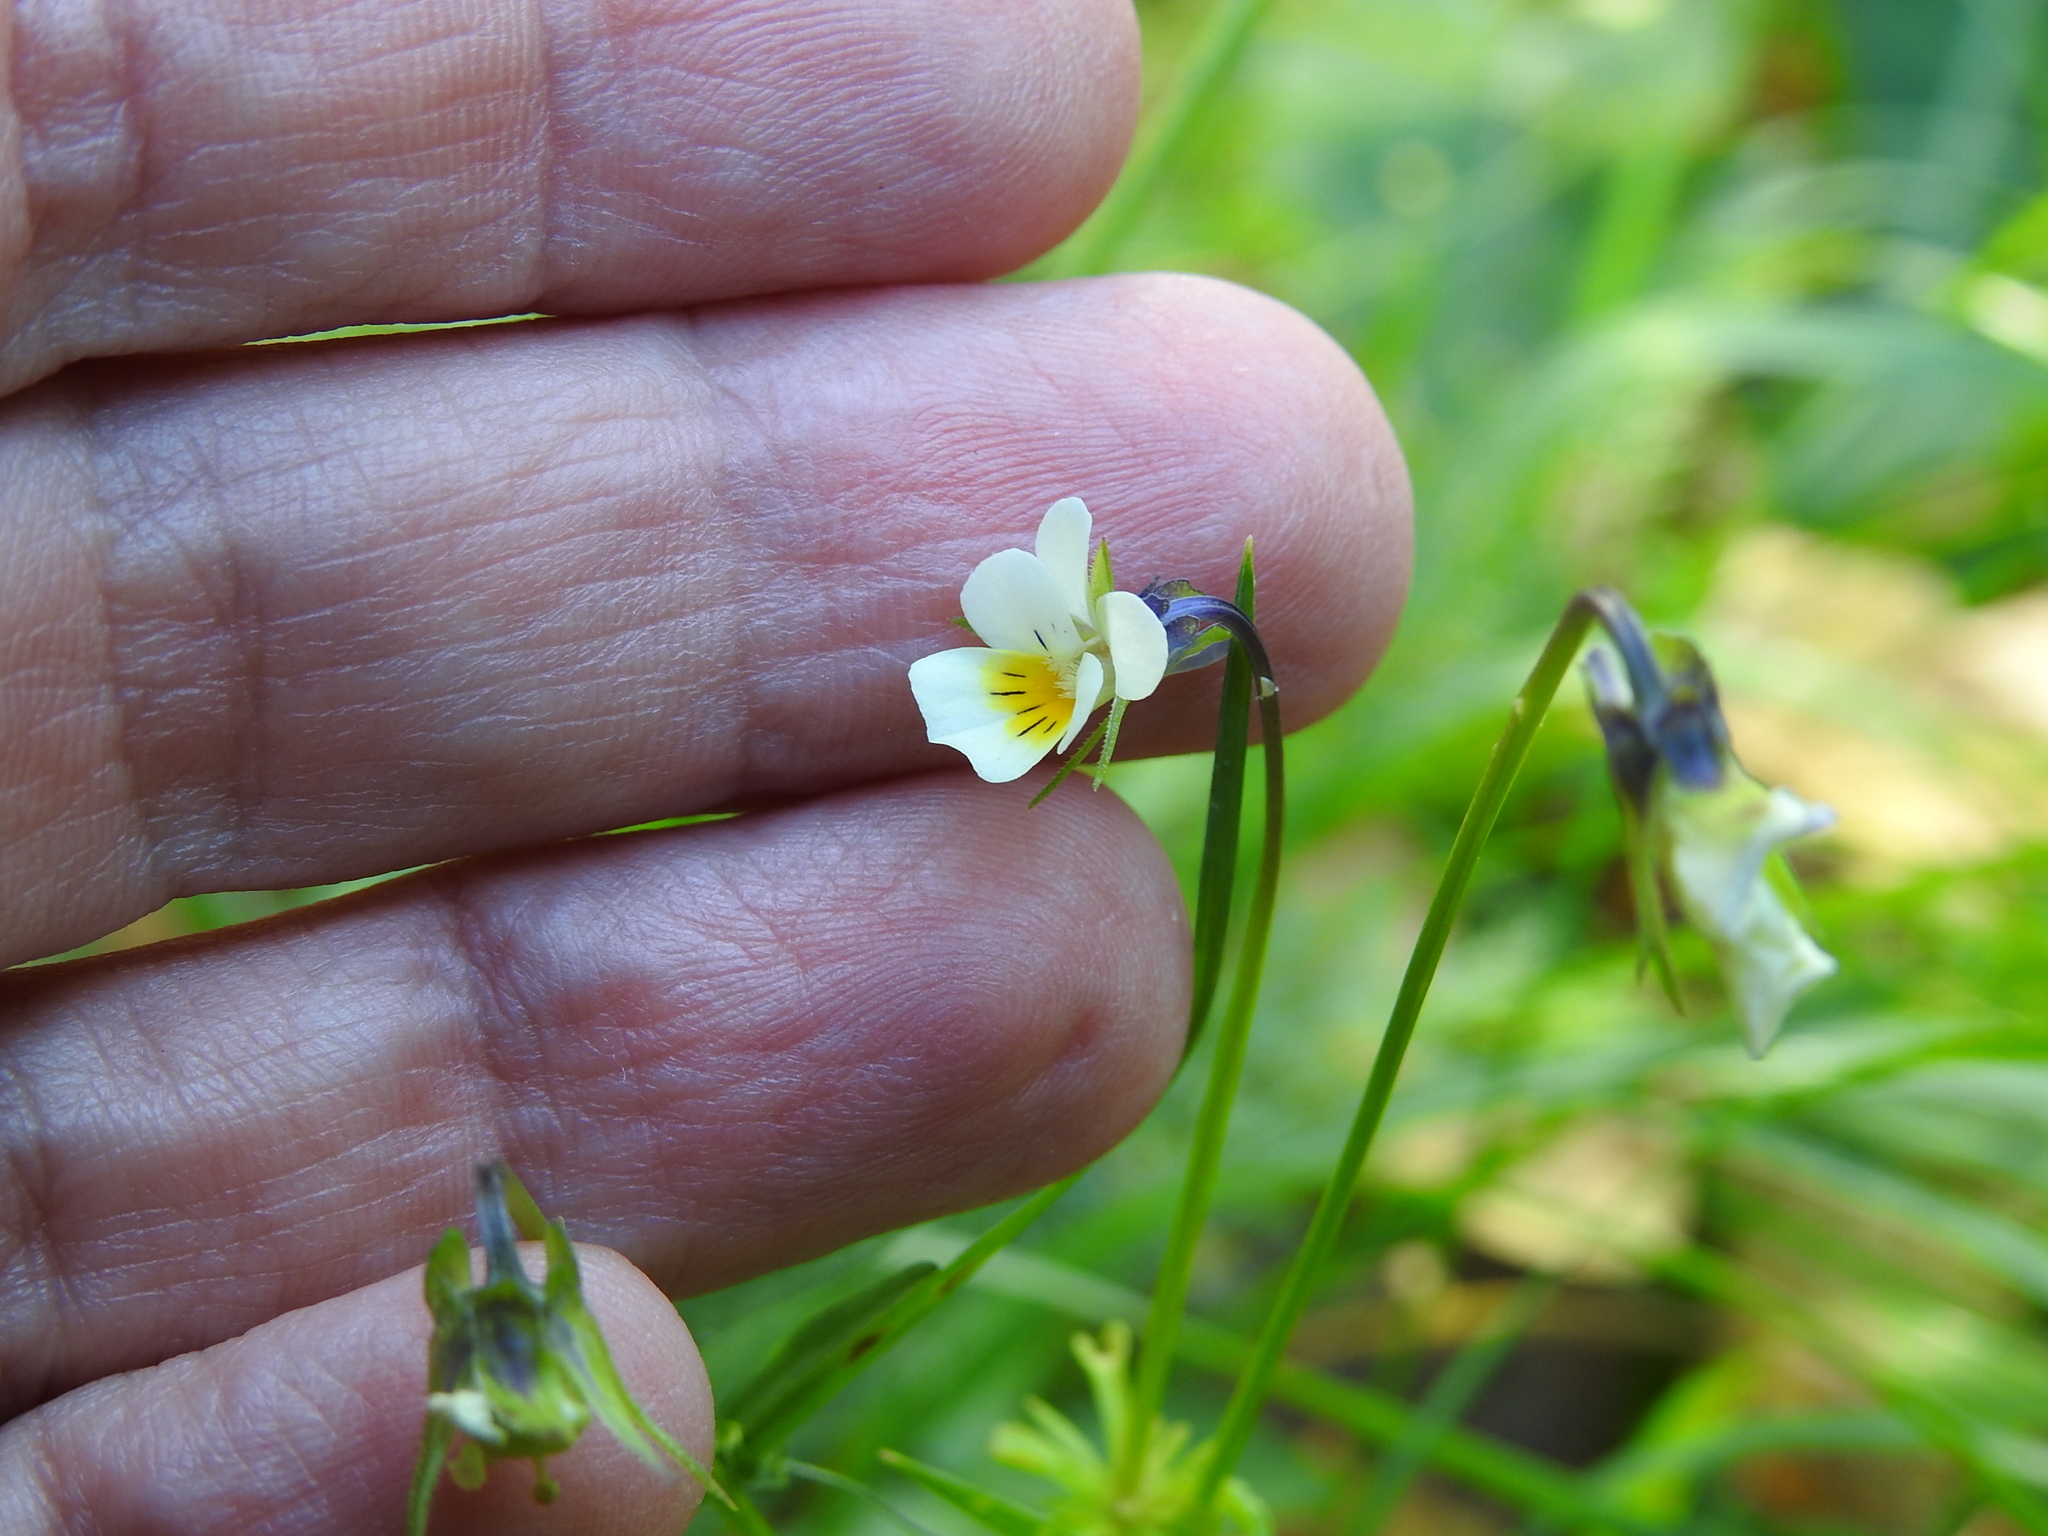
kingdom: Plantae
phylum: Tracheophyta
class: Magnoliopsida
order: Malpighiales
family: Violaceae
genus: Viola
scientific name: Viola arvensis
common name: Field pansy
